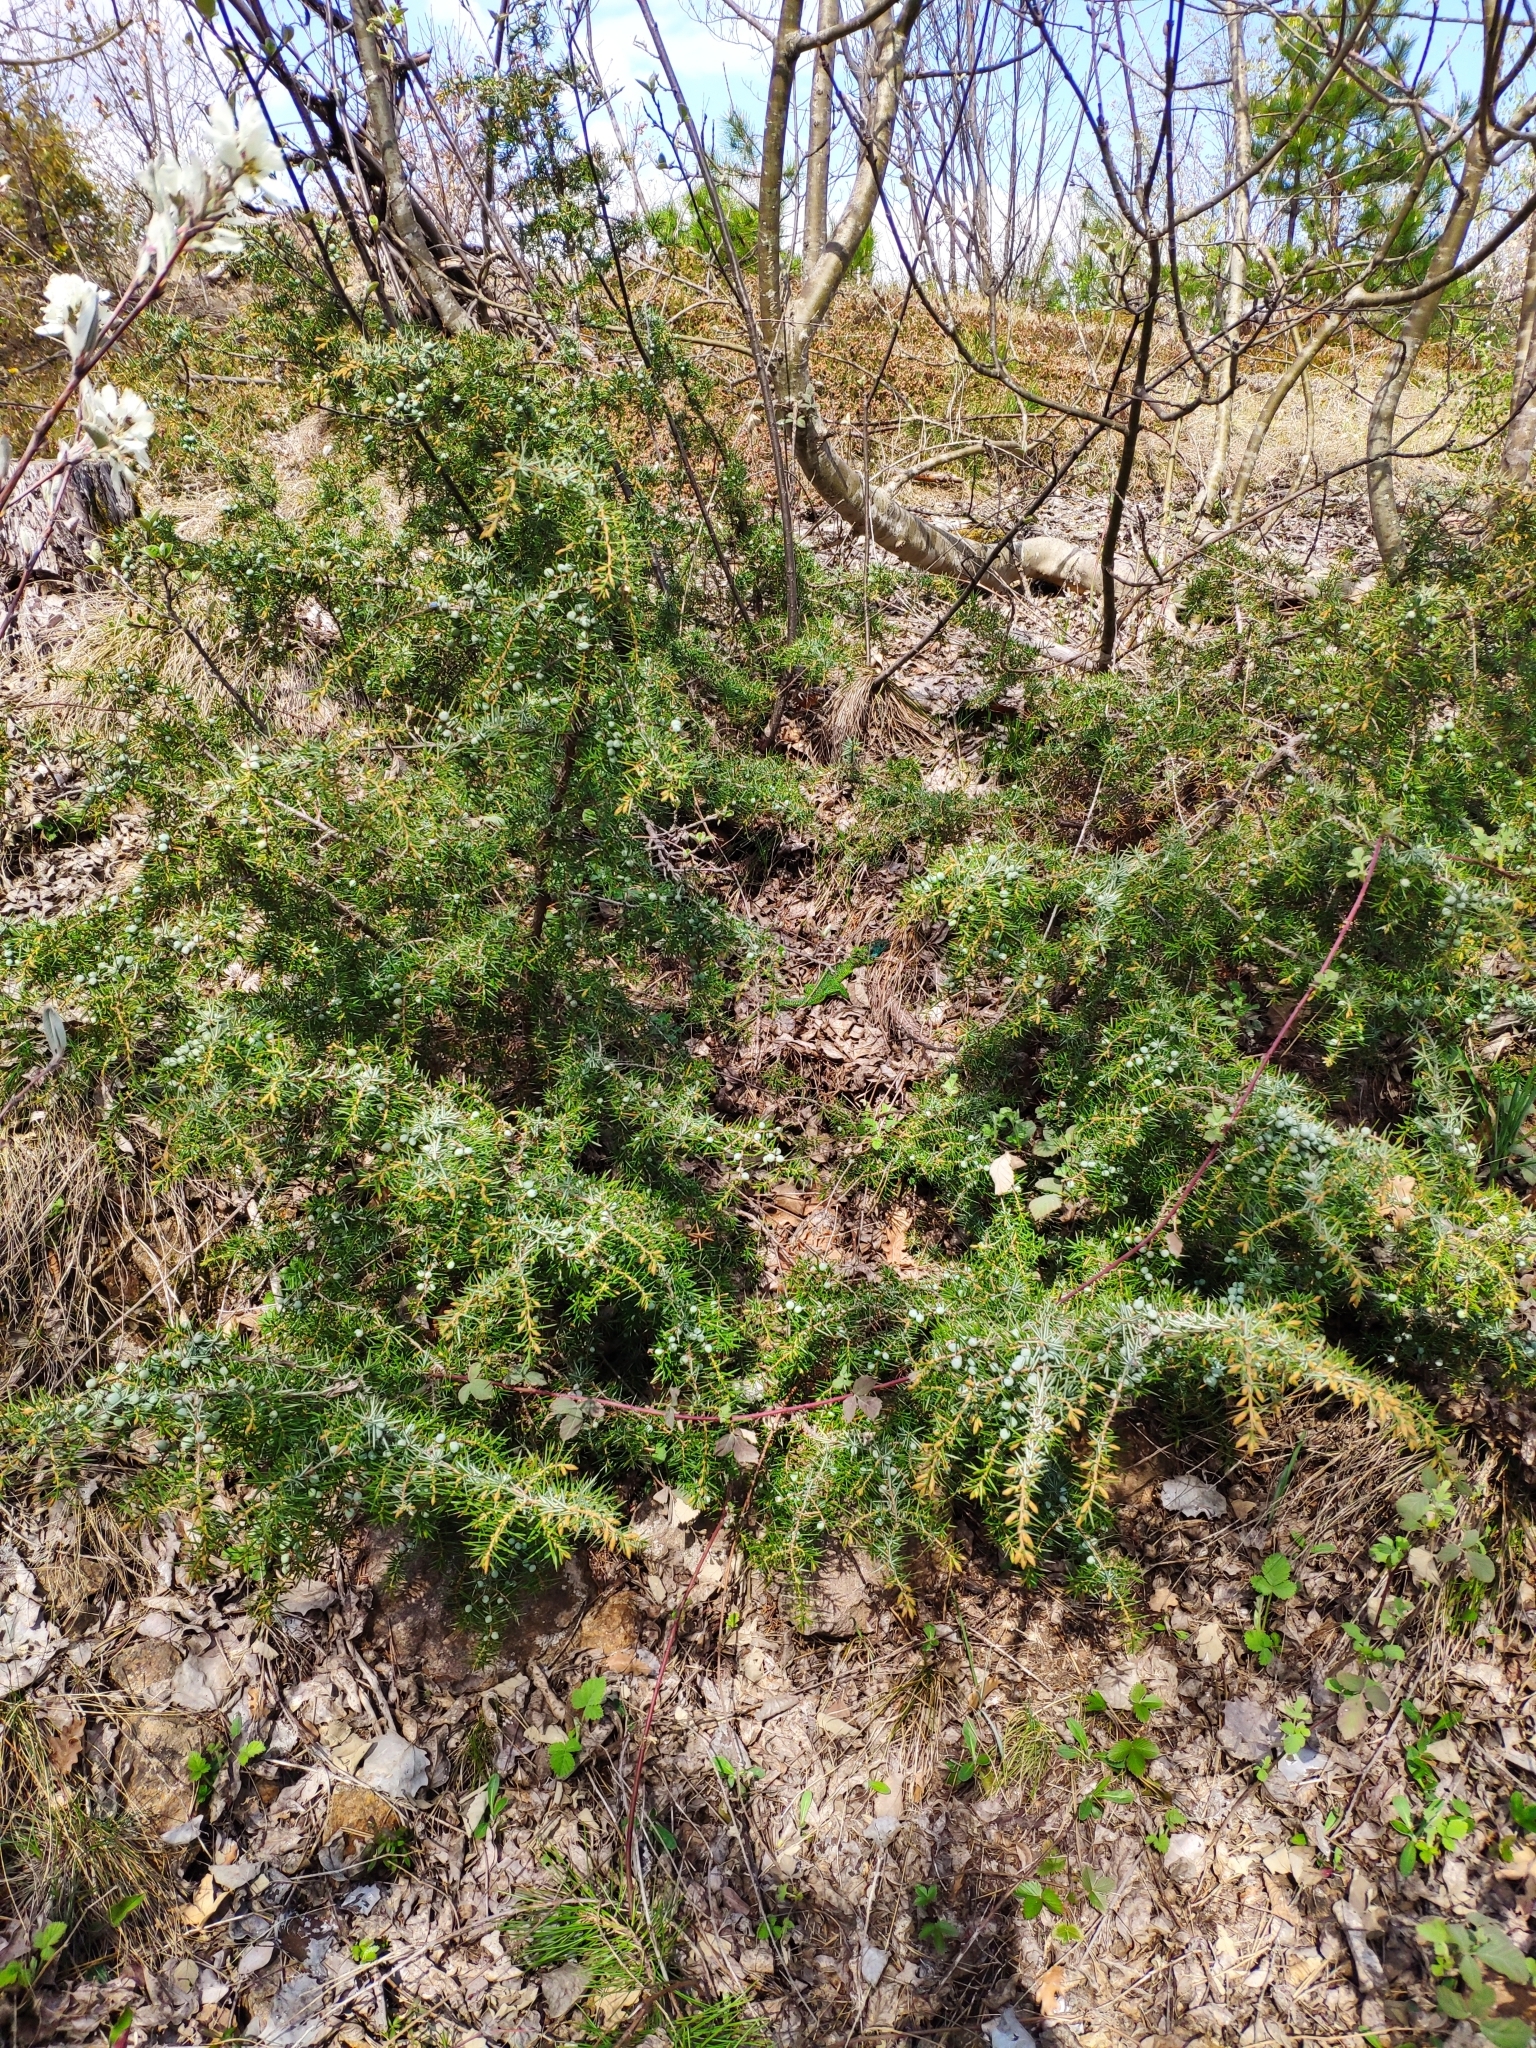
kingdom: Animalia
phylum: Chordata
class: Squamata
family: Lacertidae
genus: Lacerta
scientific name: Lacerta bilineata
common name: Western green lizard
